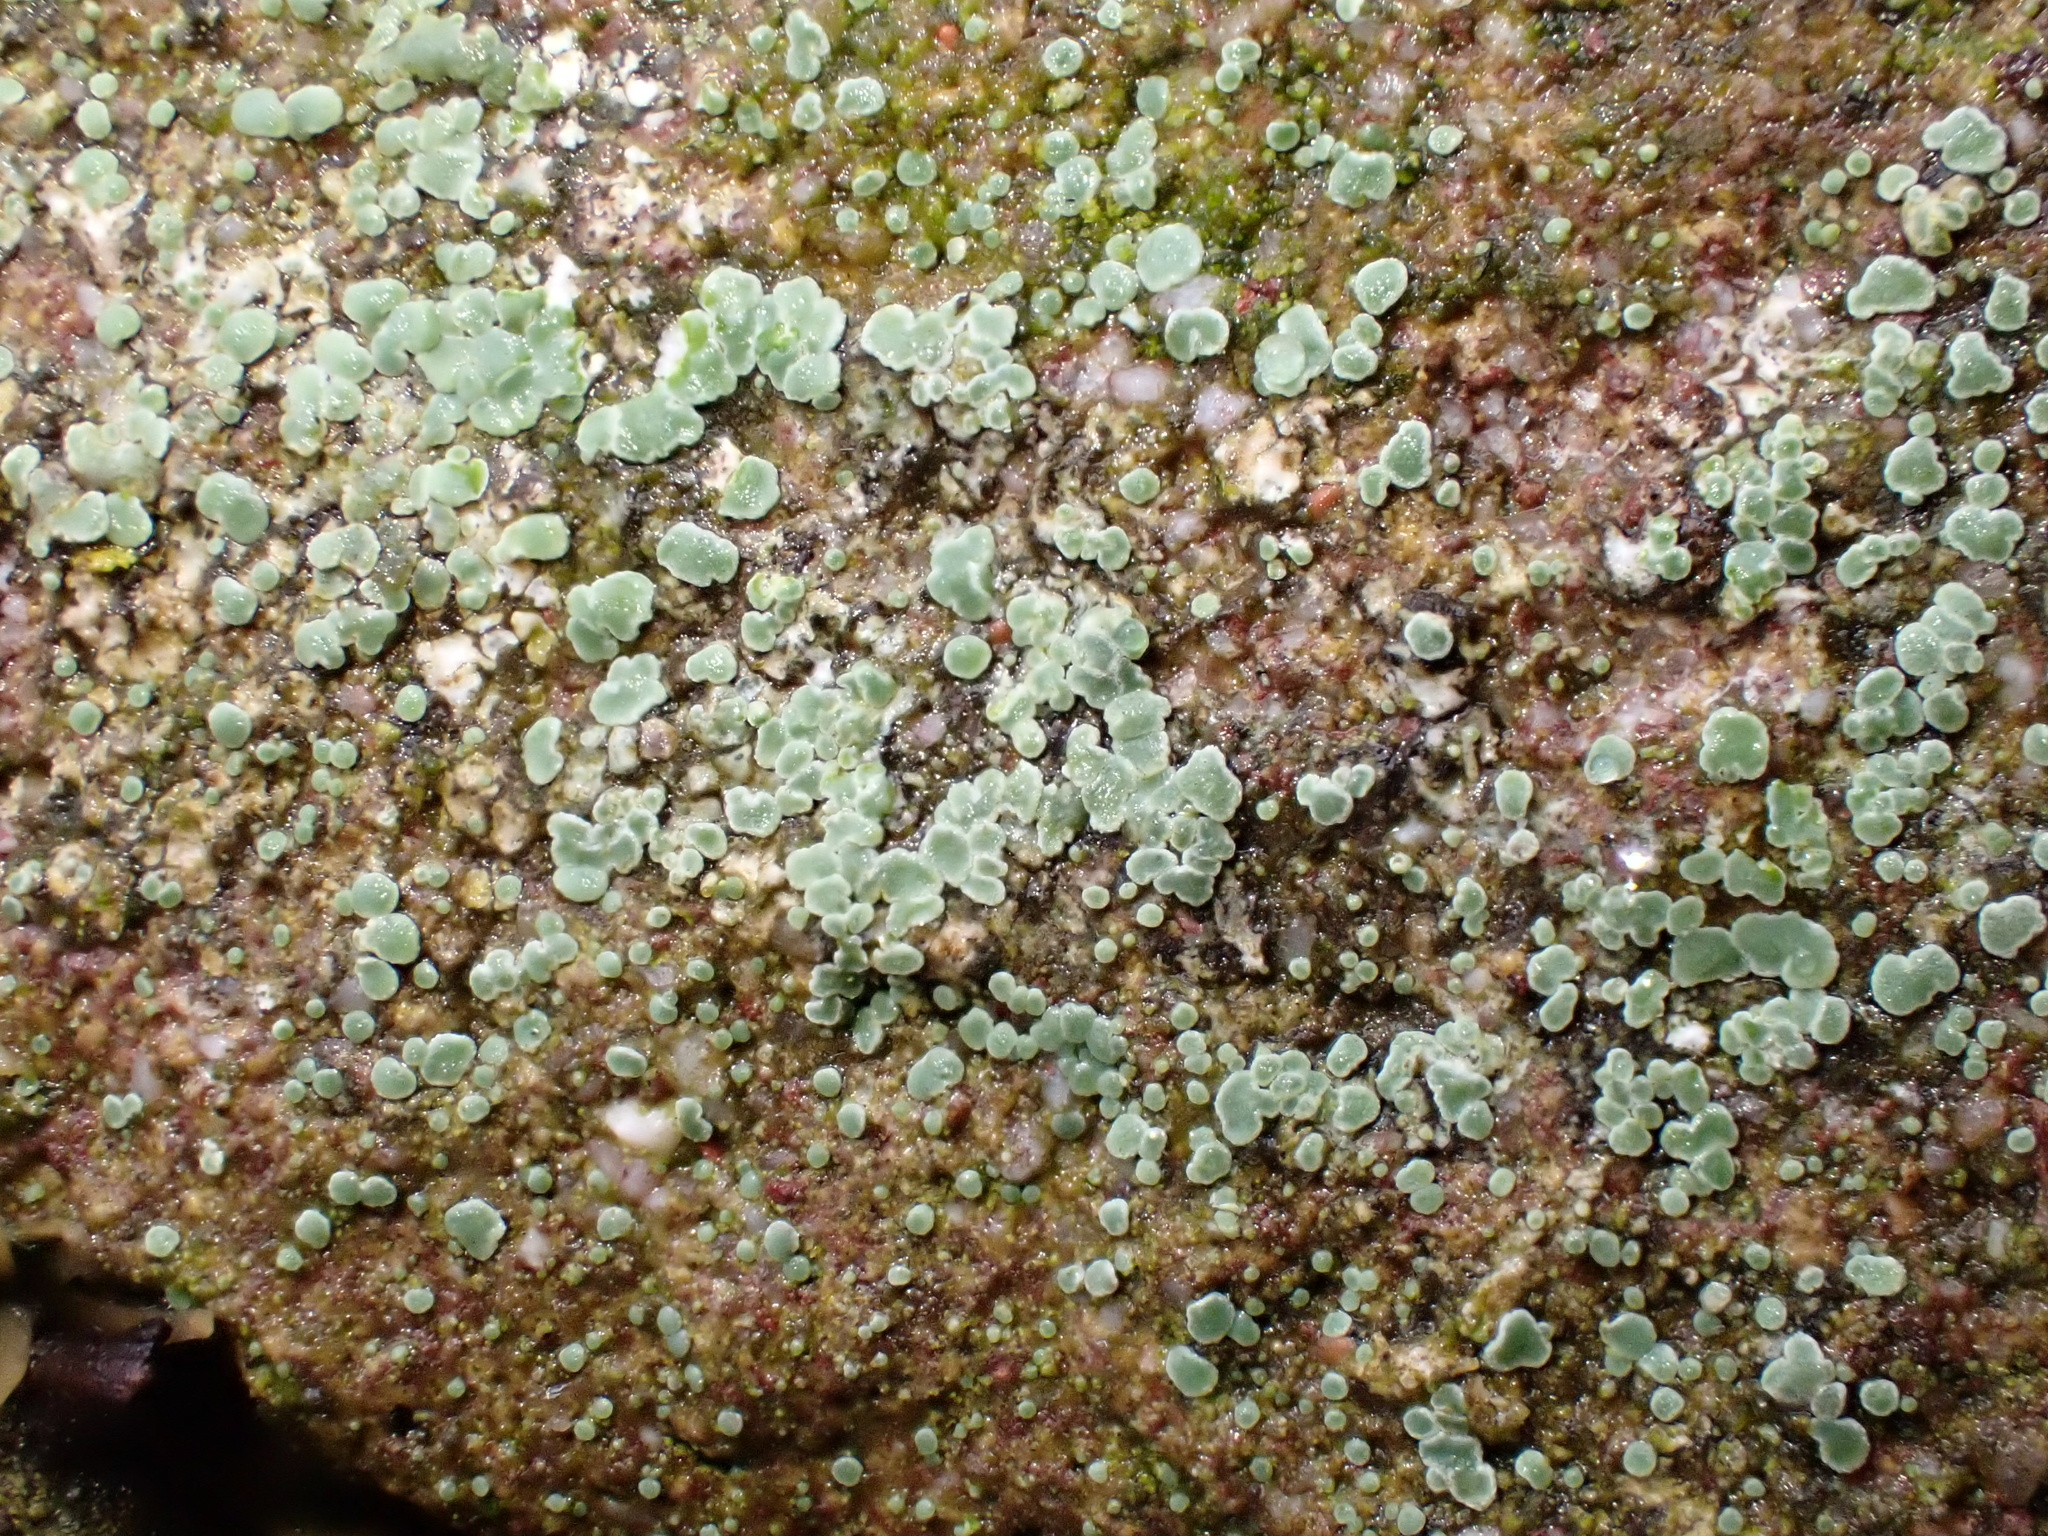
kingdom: Fungi
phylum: Ascomycota
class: Lecanoromycetes
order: Lecanorales
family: Lecanoraceae
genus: Protoparmeliopsis
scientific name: Protoparmeliopsis muralis
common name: Stonewall rim lichen
